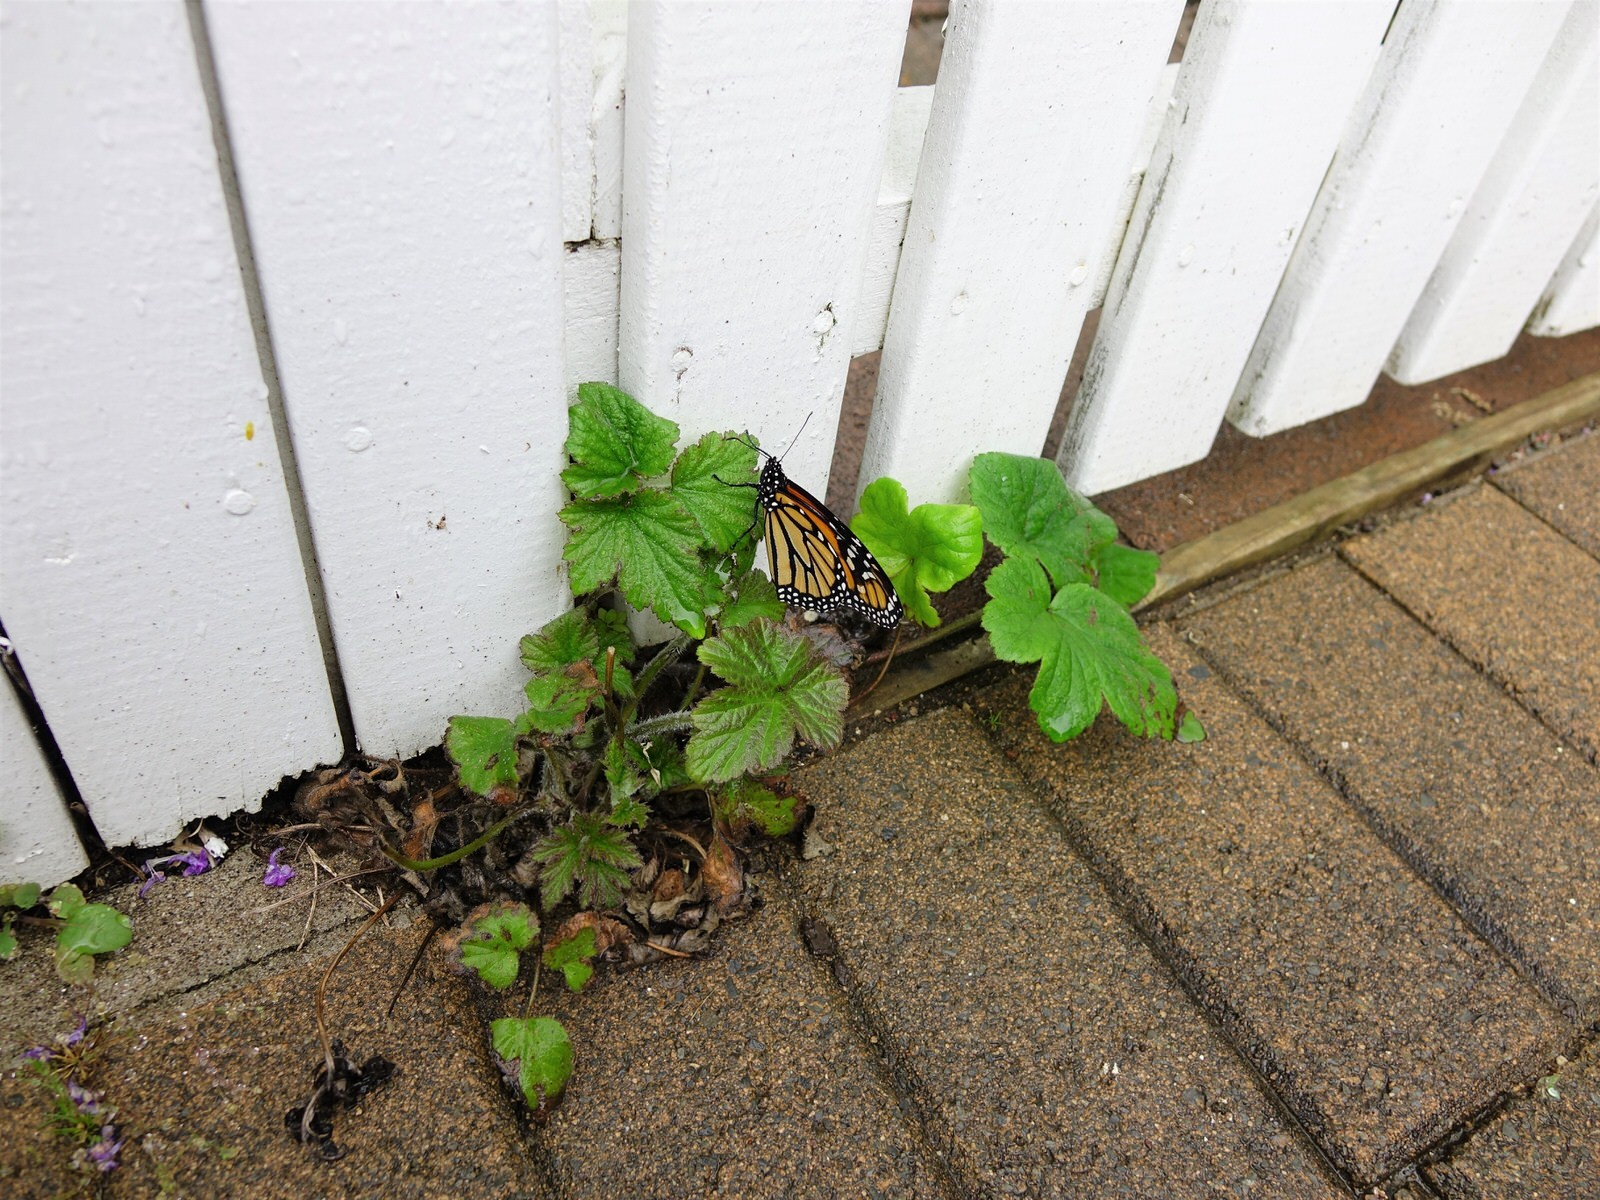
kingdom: Animalia
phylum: Arthropoda
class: Insecta
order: Lepidoptera
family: Nymphalidae
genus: Danaus
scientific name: Danaus plexippus
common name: Monarch
